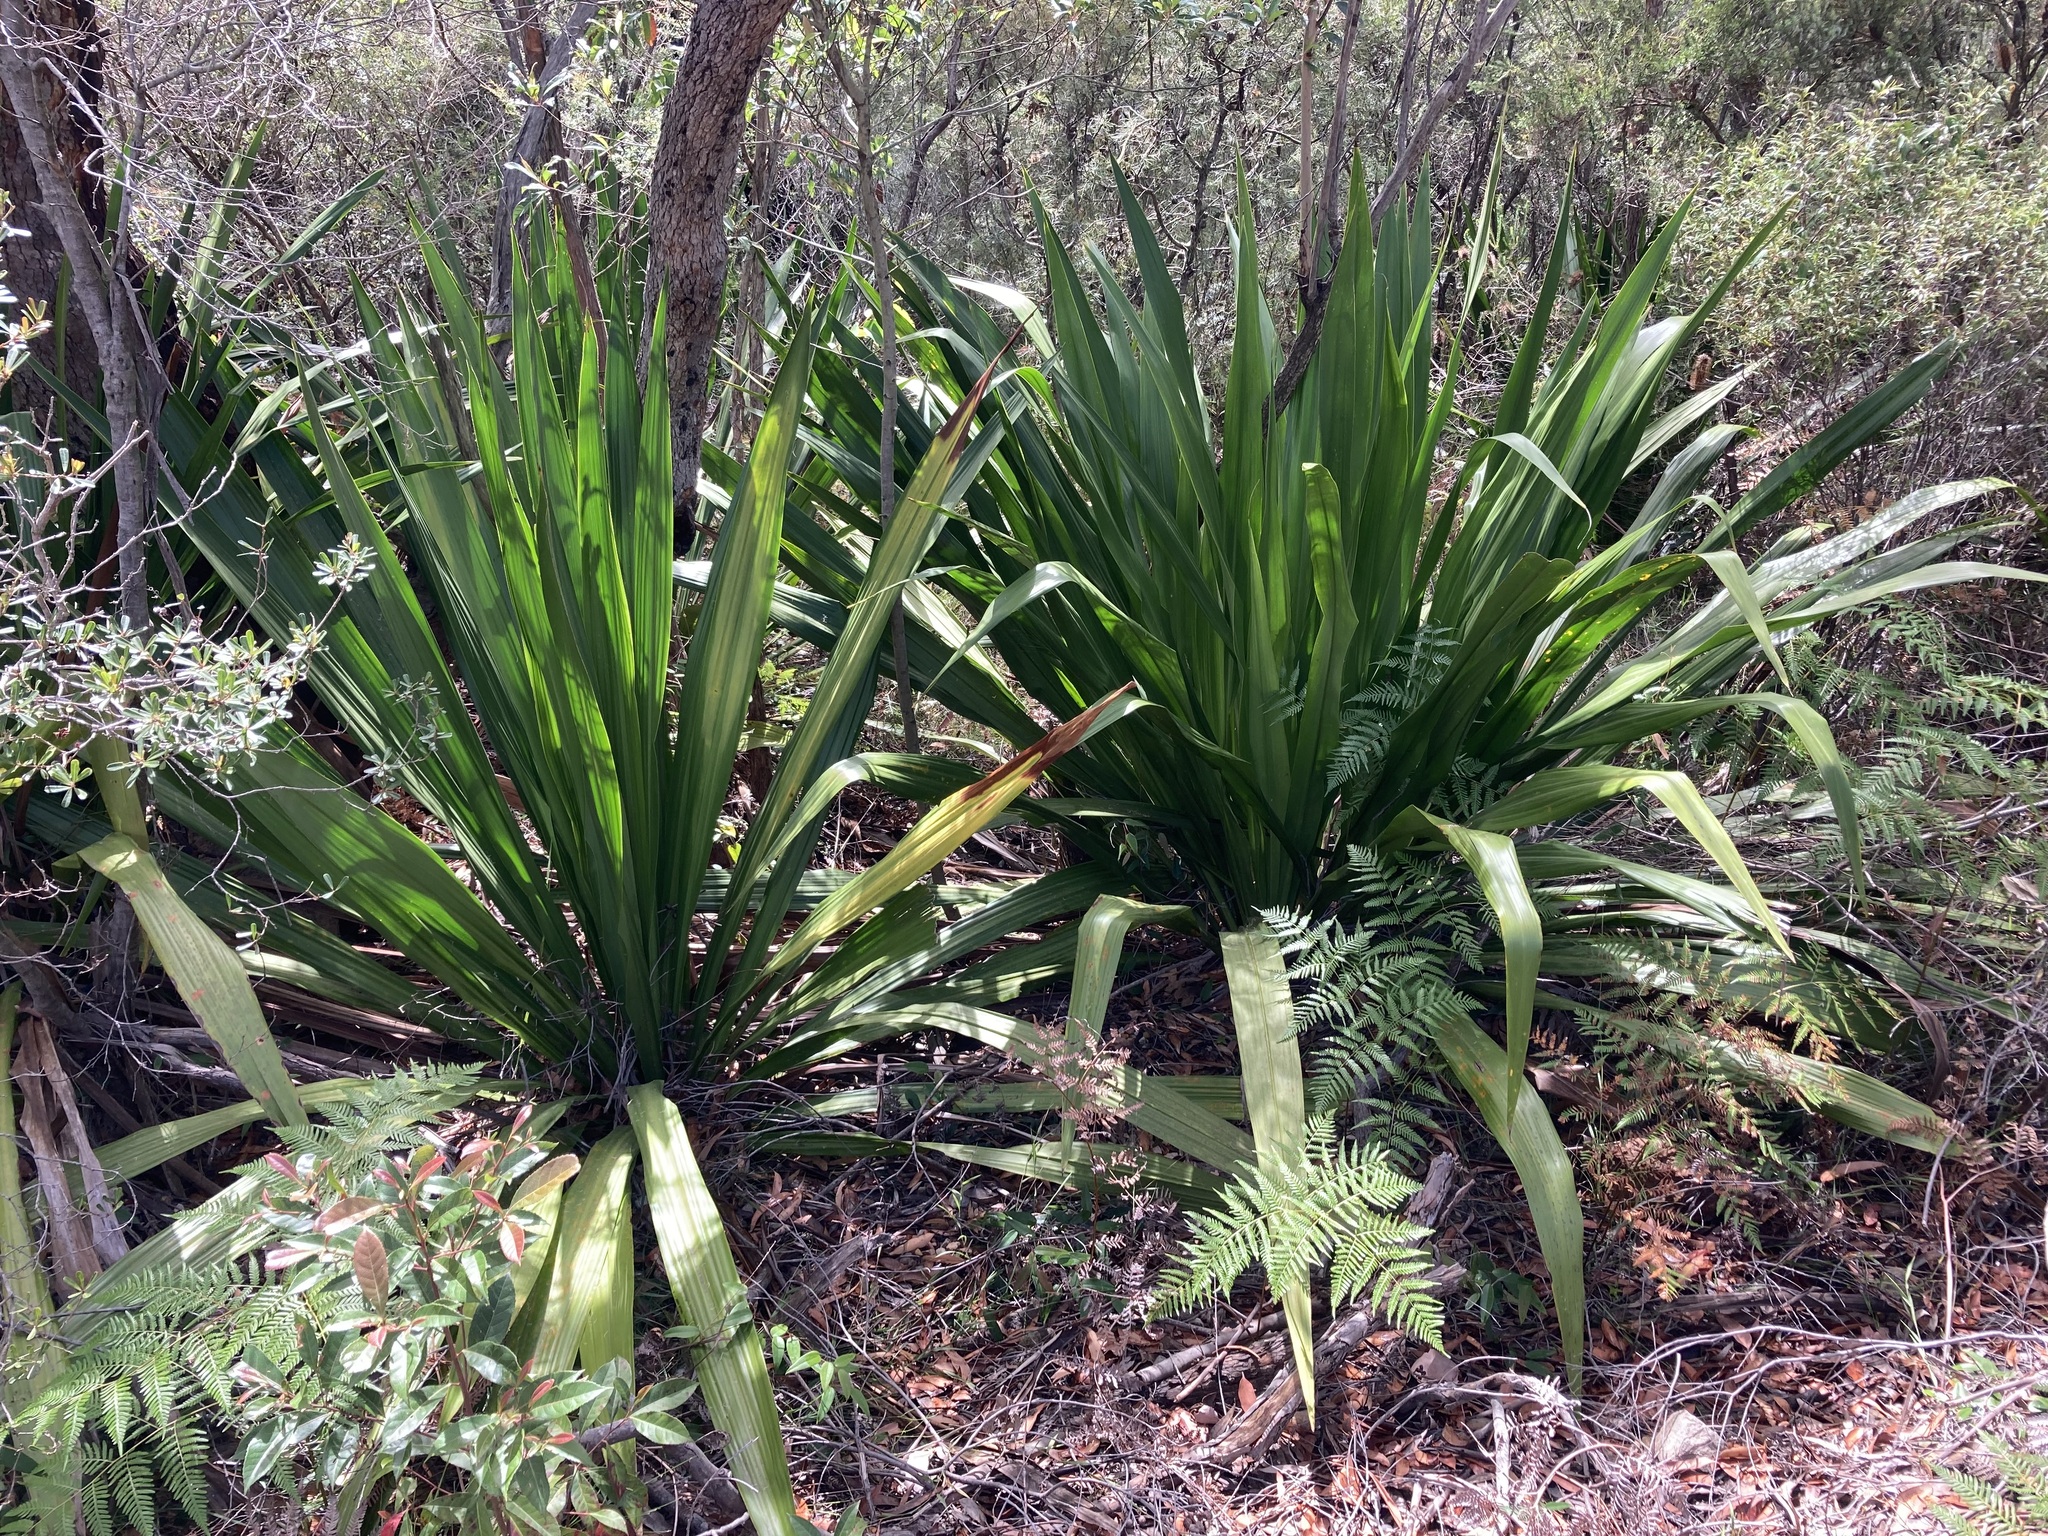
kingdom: Plantae
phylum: Tracheophyta
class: Liliopsida
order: Asparagales
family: Doryanthaceae
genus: Doryanthes
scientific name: Doryanthes excelsa
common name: Giant-lily
